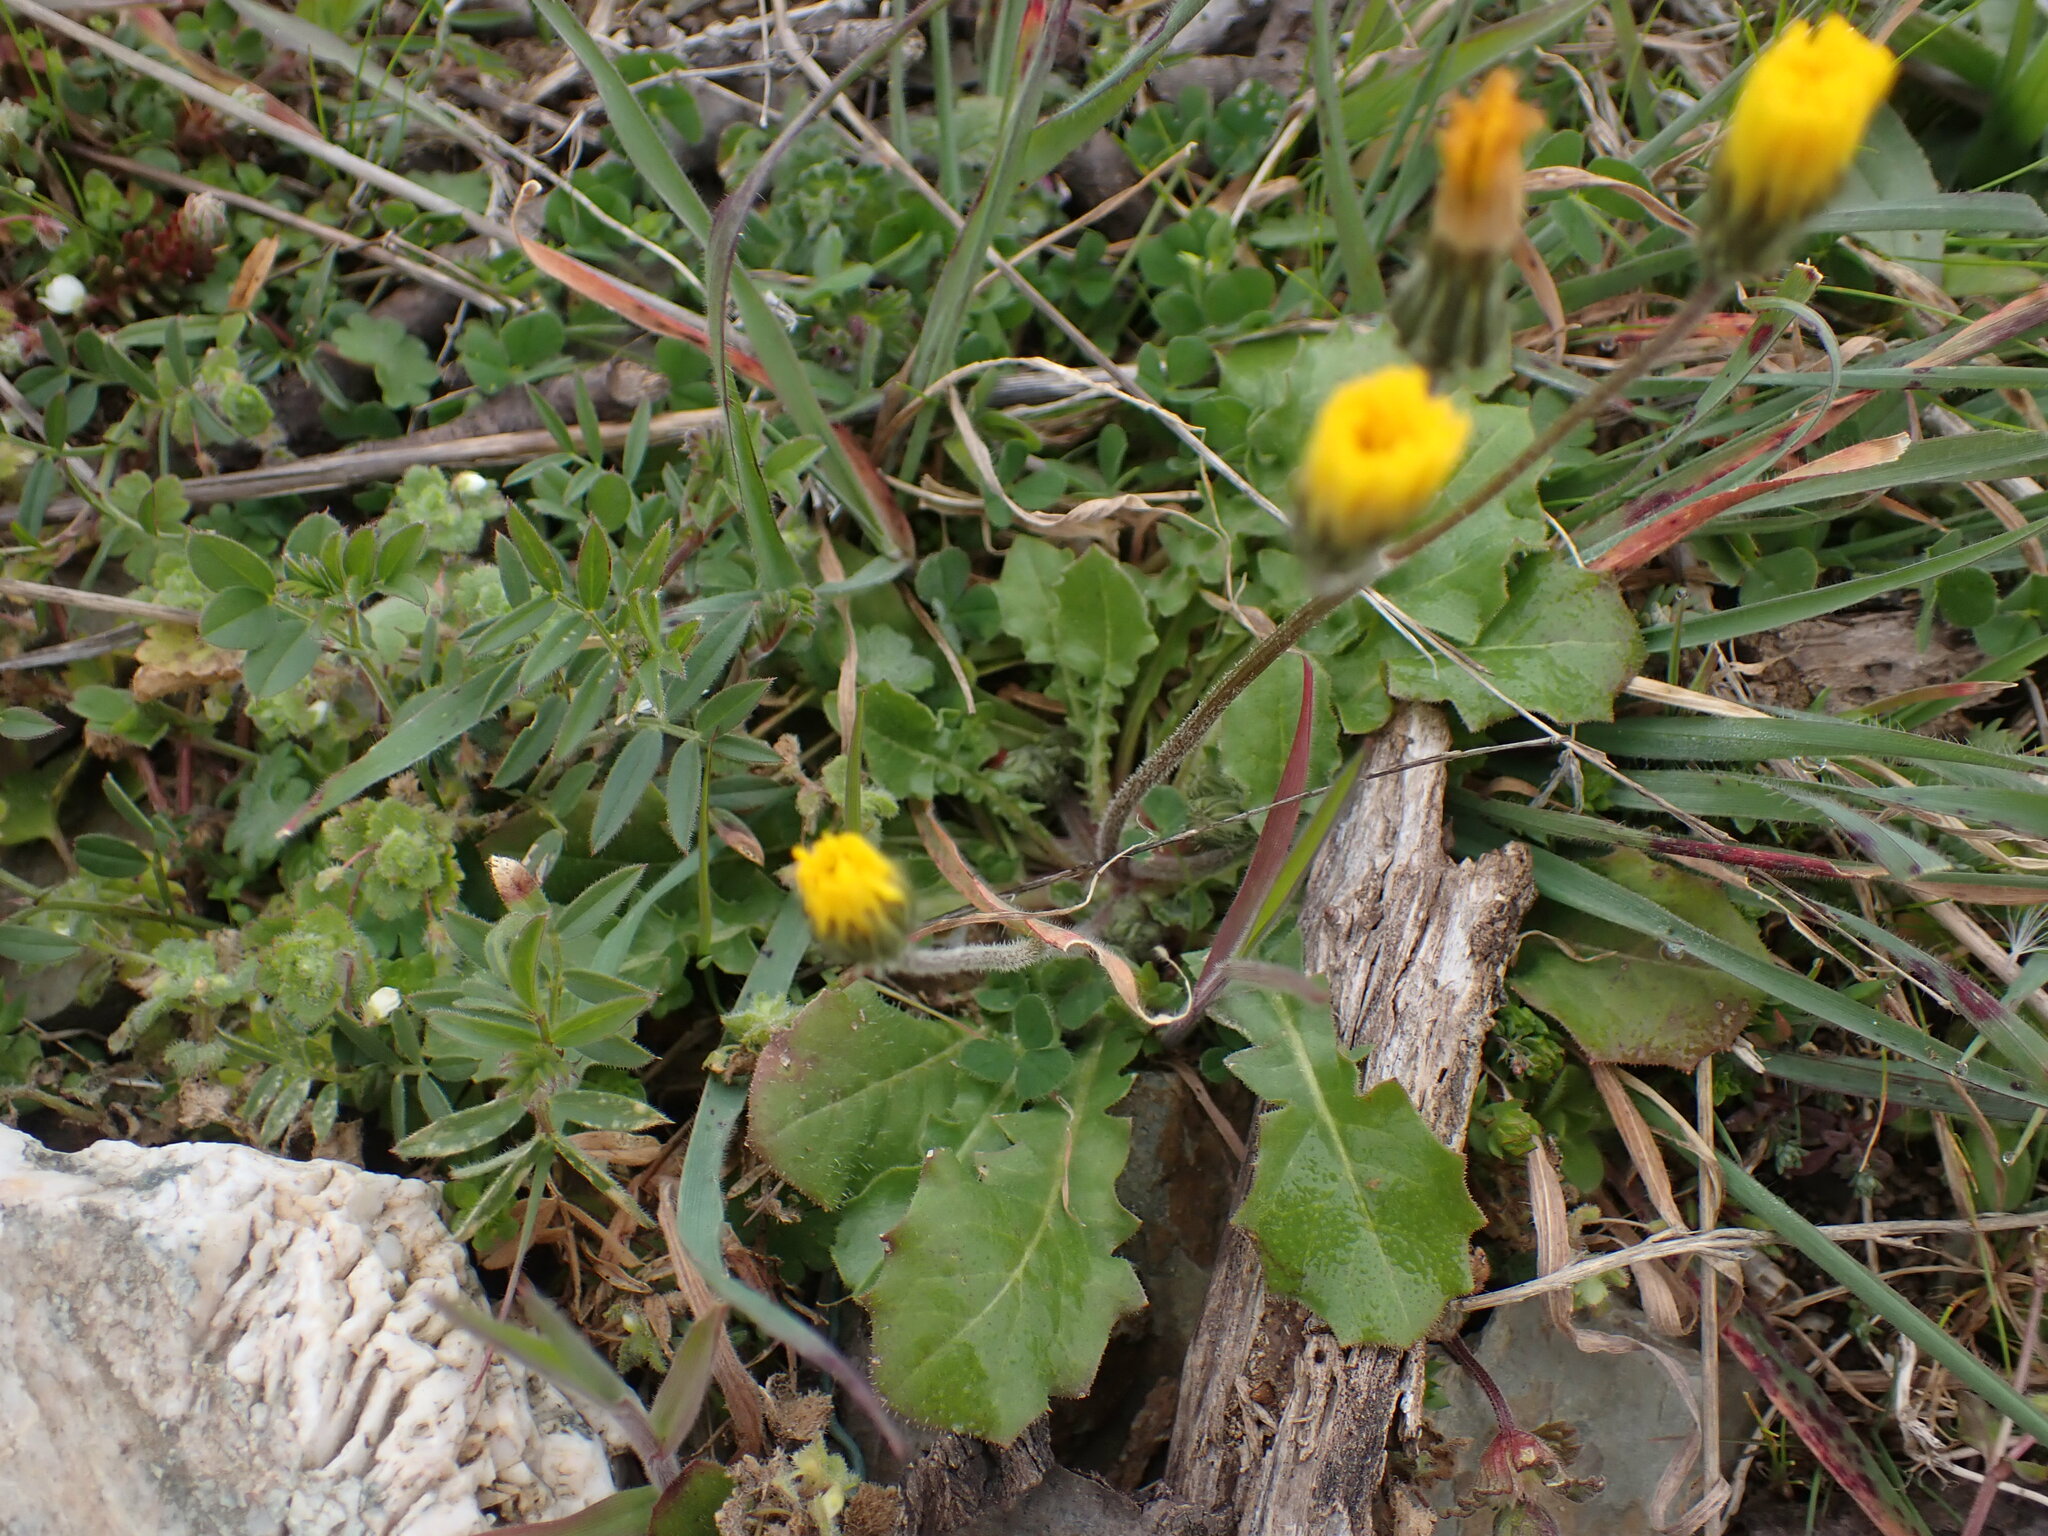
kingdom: Plantae
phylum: Tracheophyta
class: Magnoliopsida
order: Asterales
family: Asteraceae
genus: Crepis
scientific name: Crepis sancta
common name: Hawk's-beard
